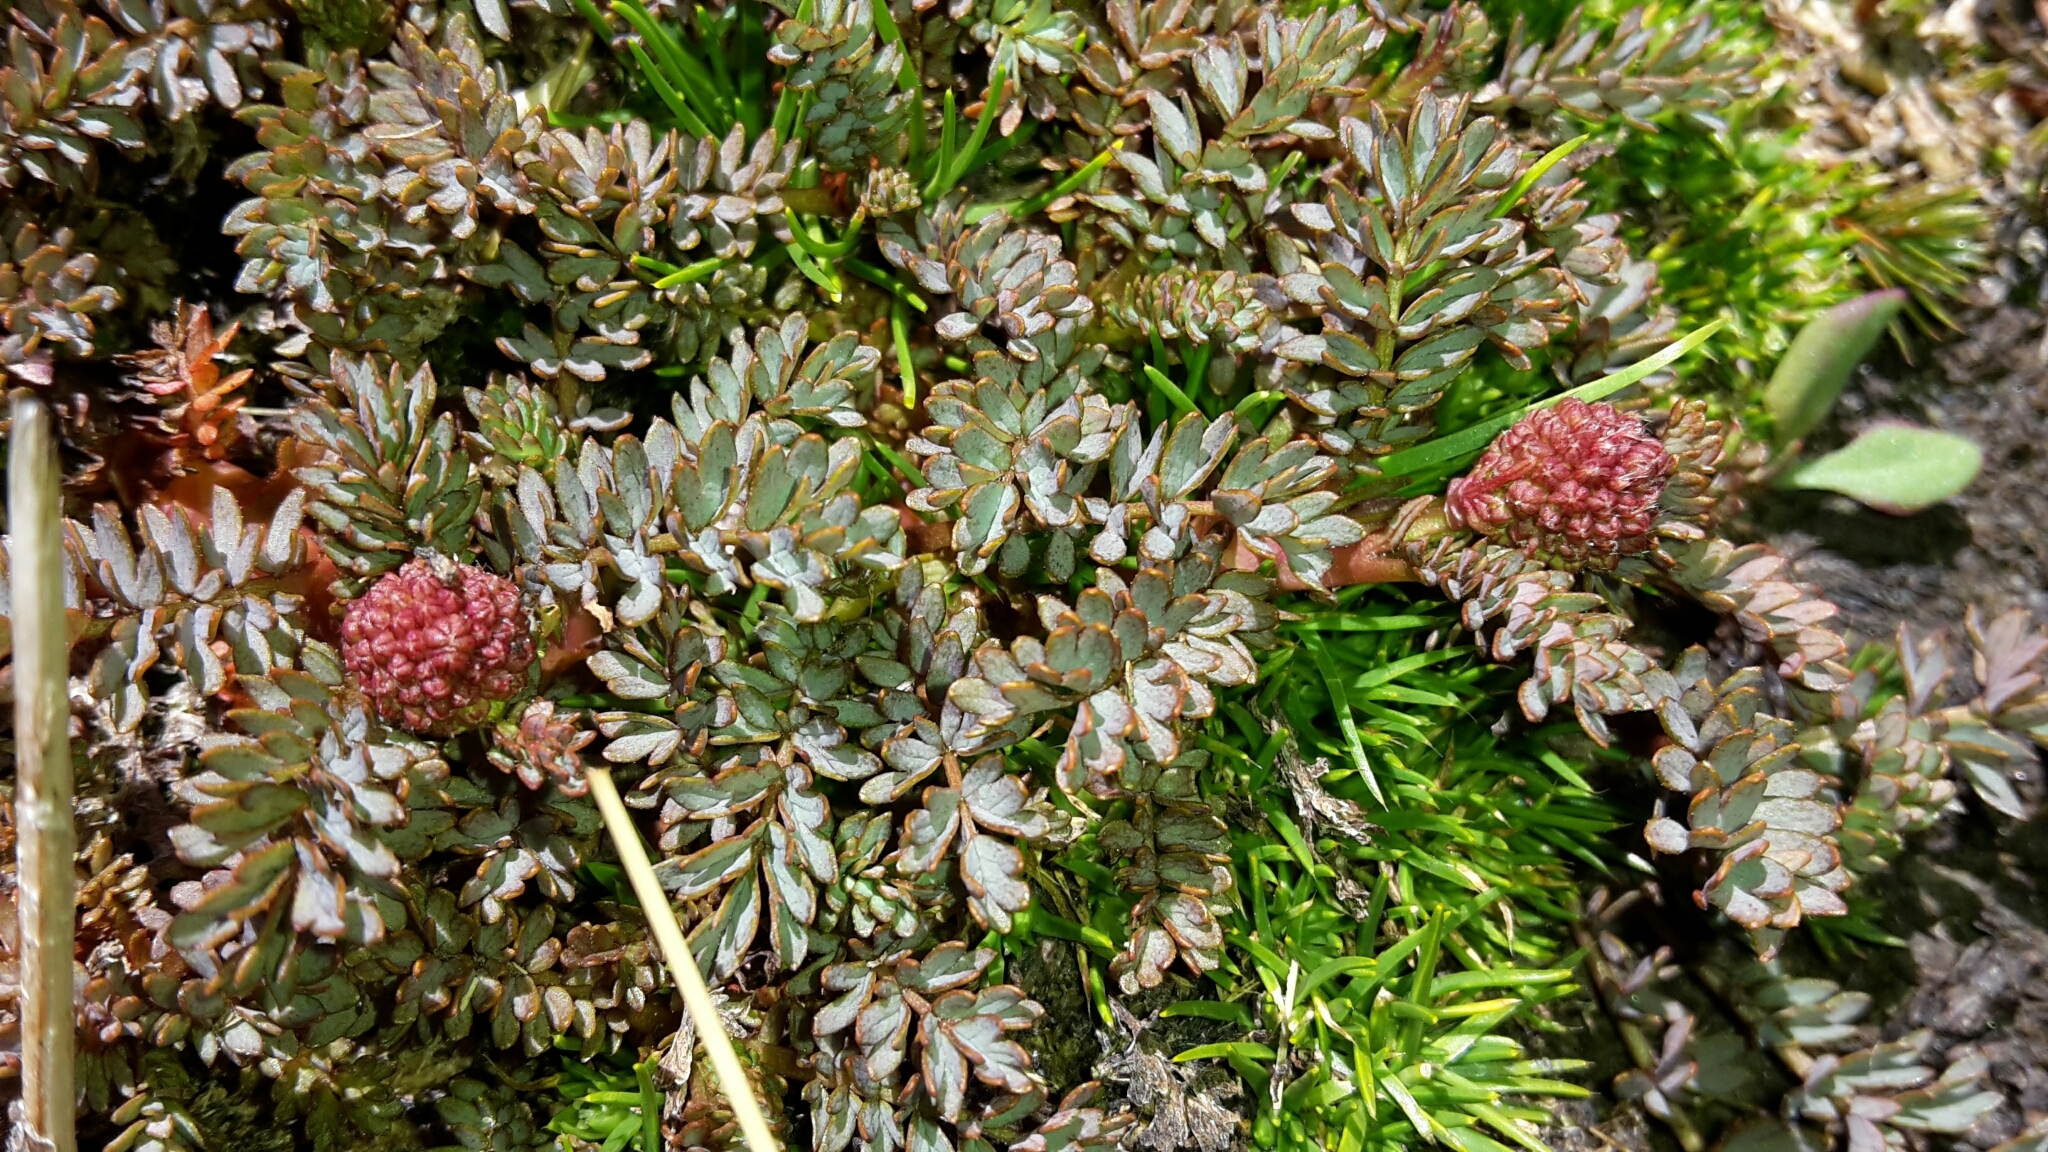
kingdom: Plantae
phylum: Tracheophyta
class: Magnoliopsida
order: Rosales
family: Rosaceae
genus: Acaena
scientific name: Acaena saccaticupula
